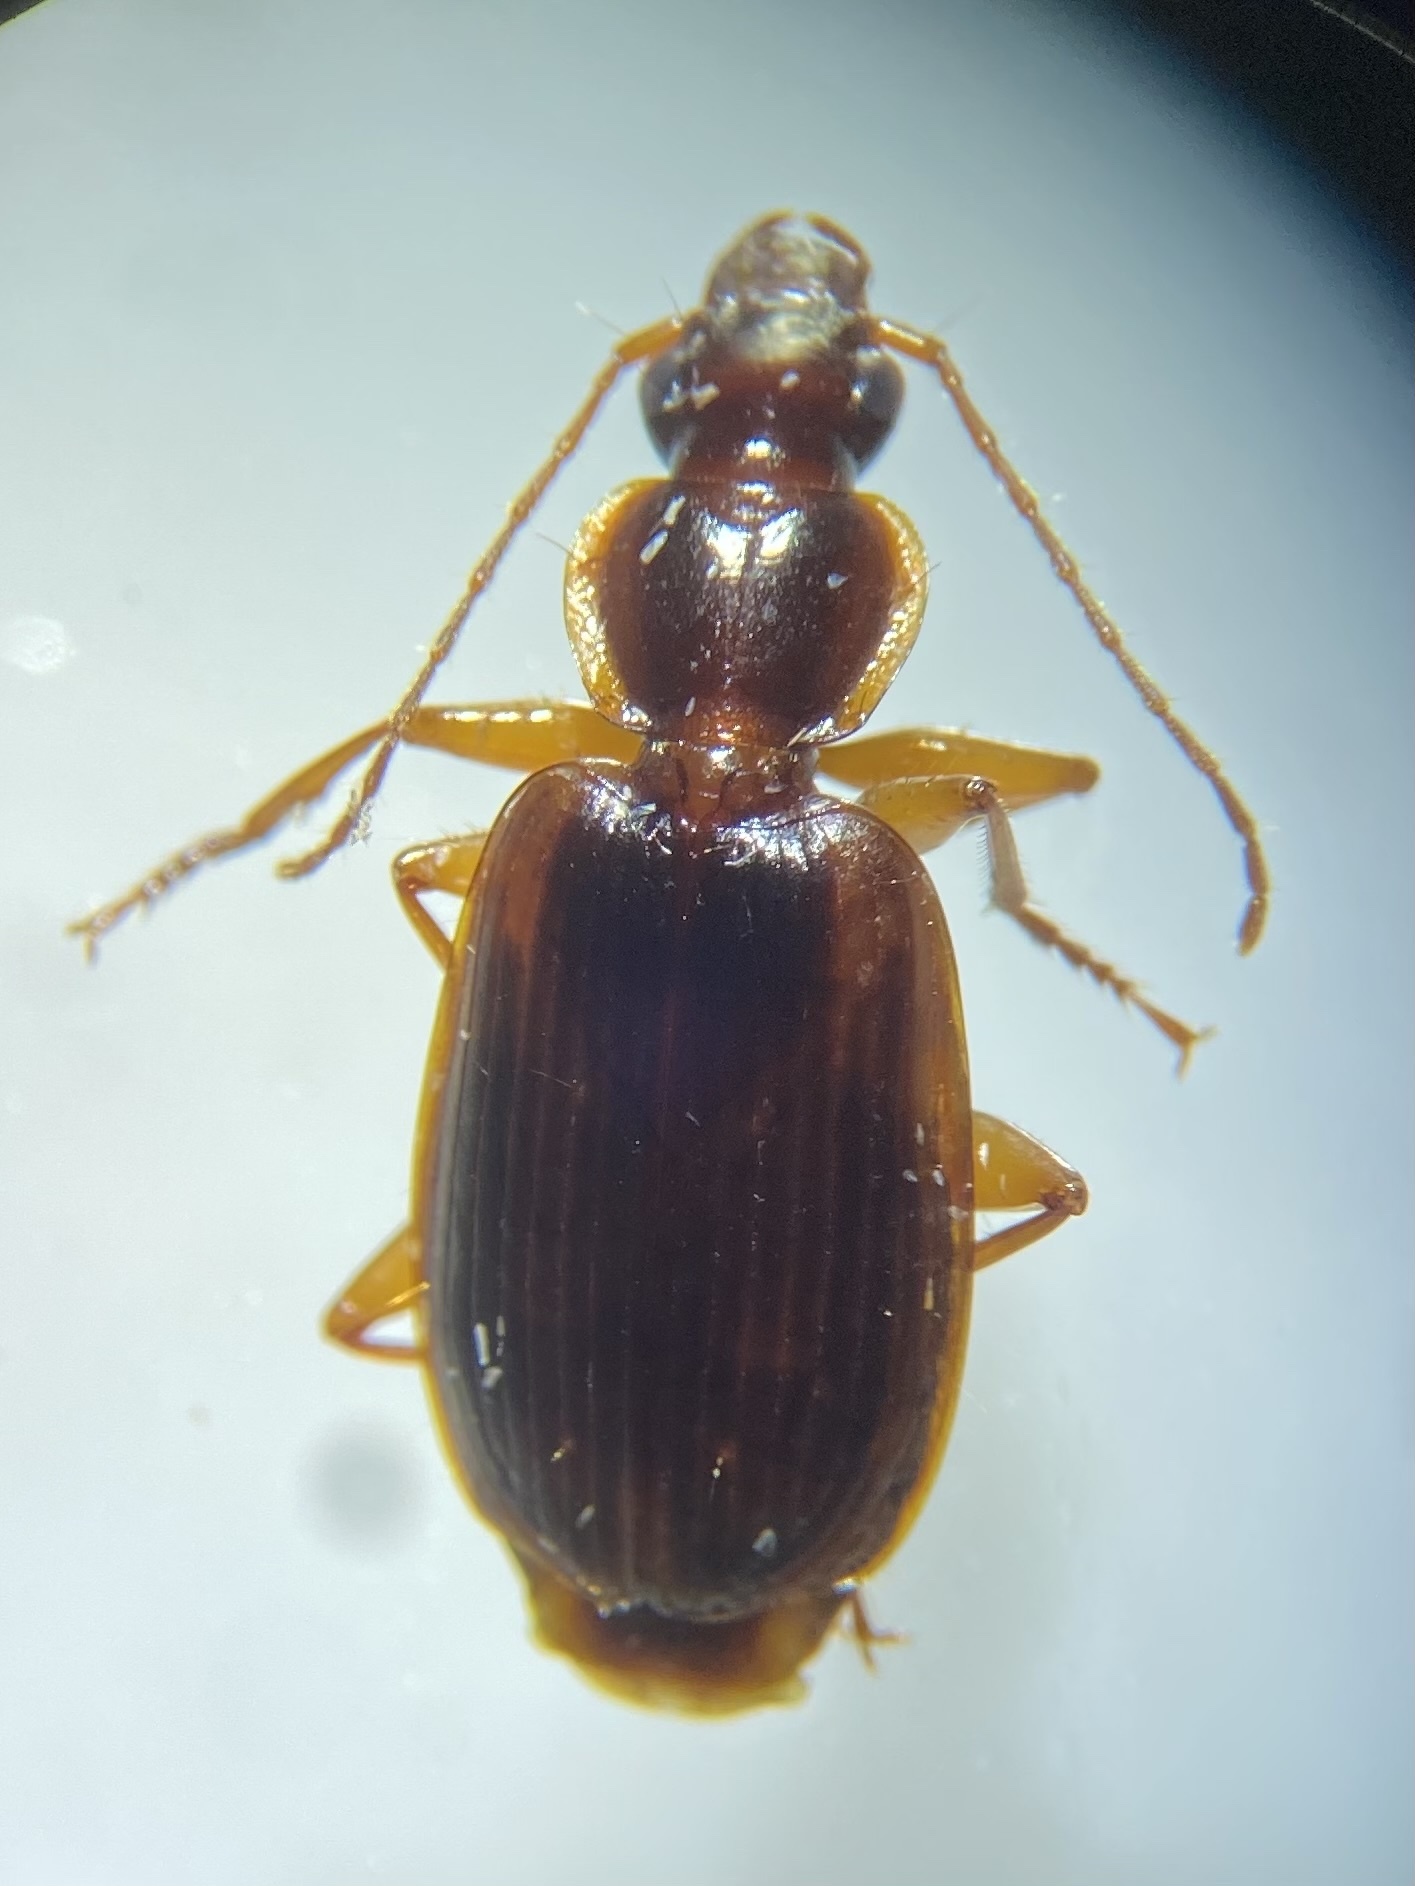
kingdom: Animalia
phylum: Arthropoda
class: Insecta
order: Coleoptera
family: Carabidae
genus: Pinacodera
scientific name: Pinacodera limbata
